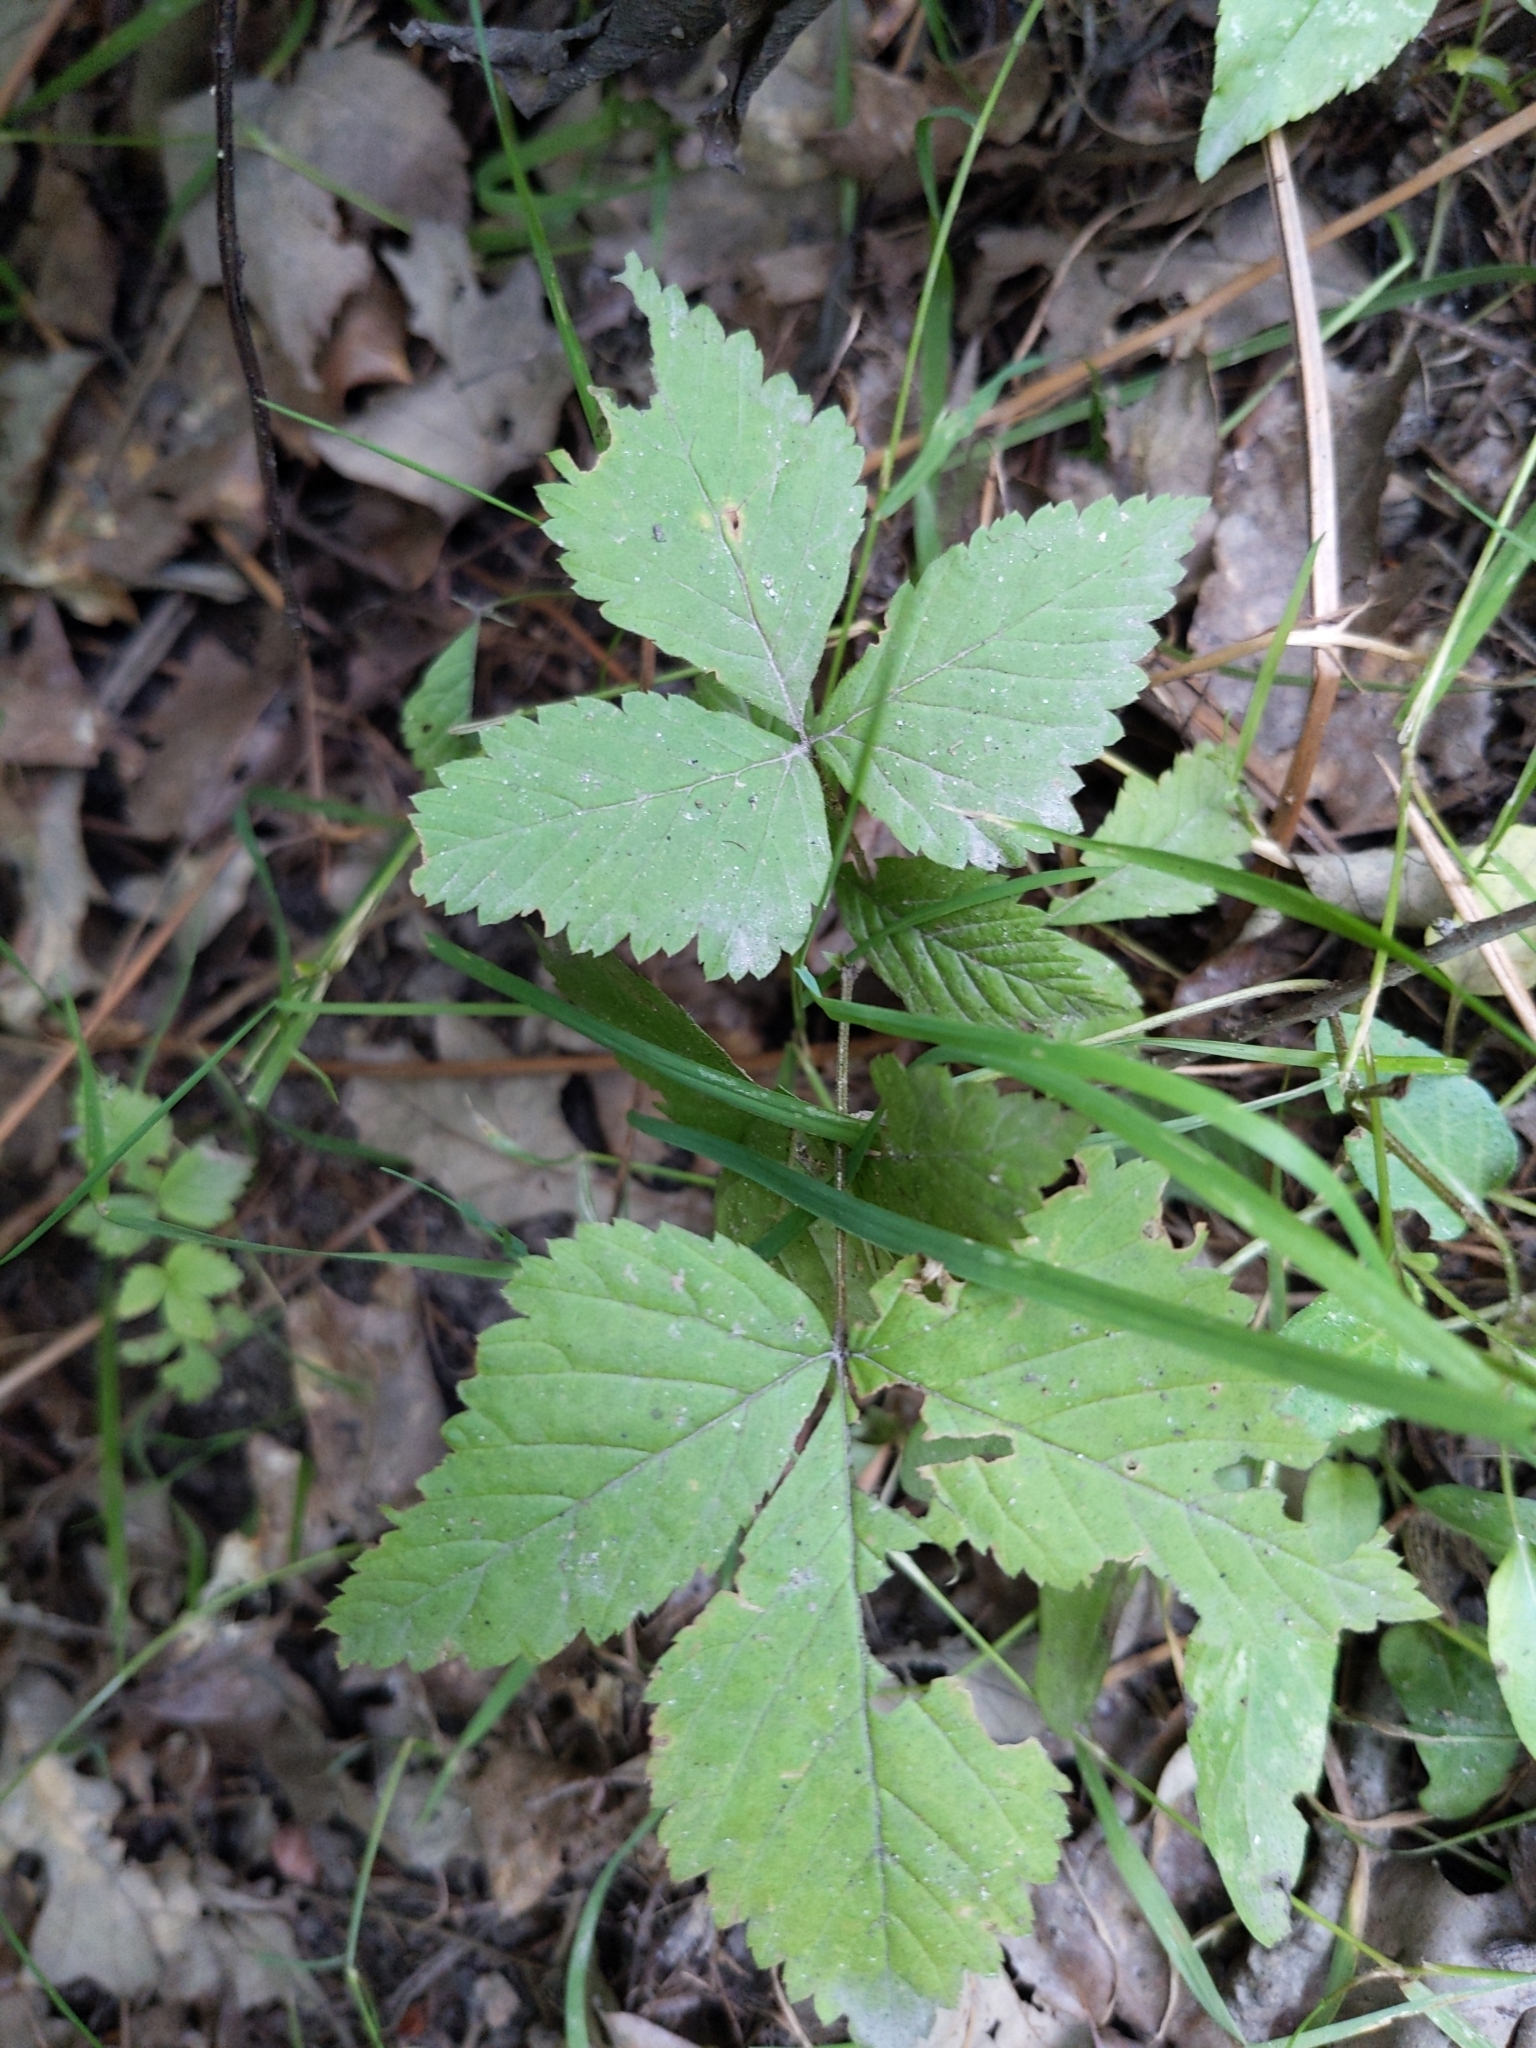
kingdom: Plantae
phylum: Tracheophyta
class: Magnoliopsida
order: Rosales
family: Rosaceae
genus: Rubus
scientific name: Rubus pubescens
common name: Dwarf raspberry
